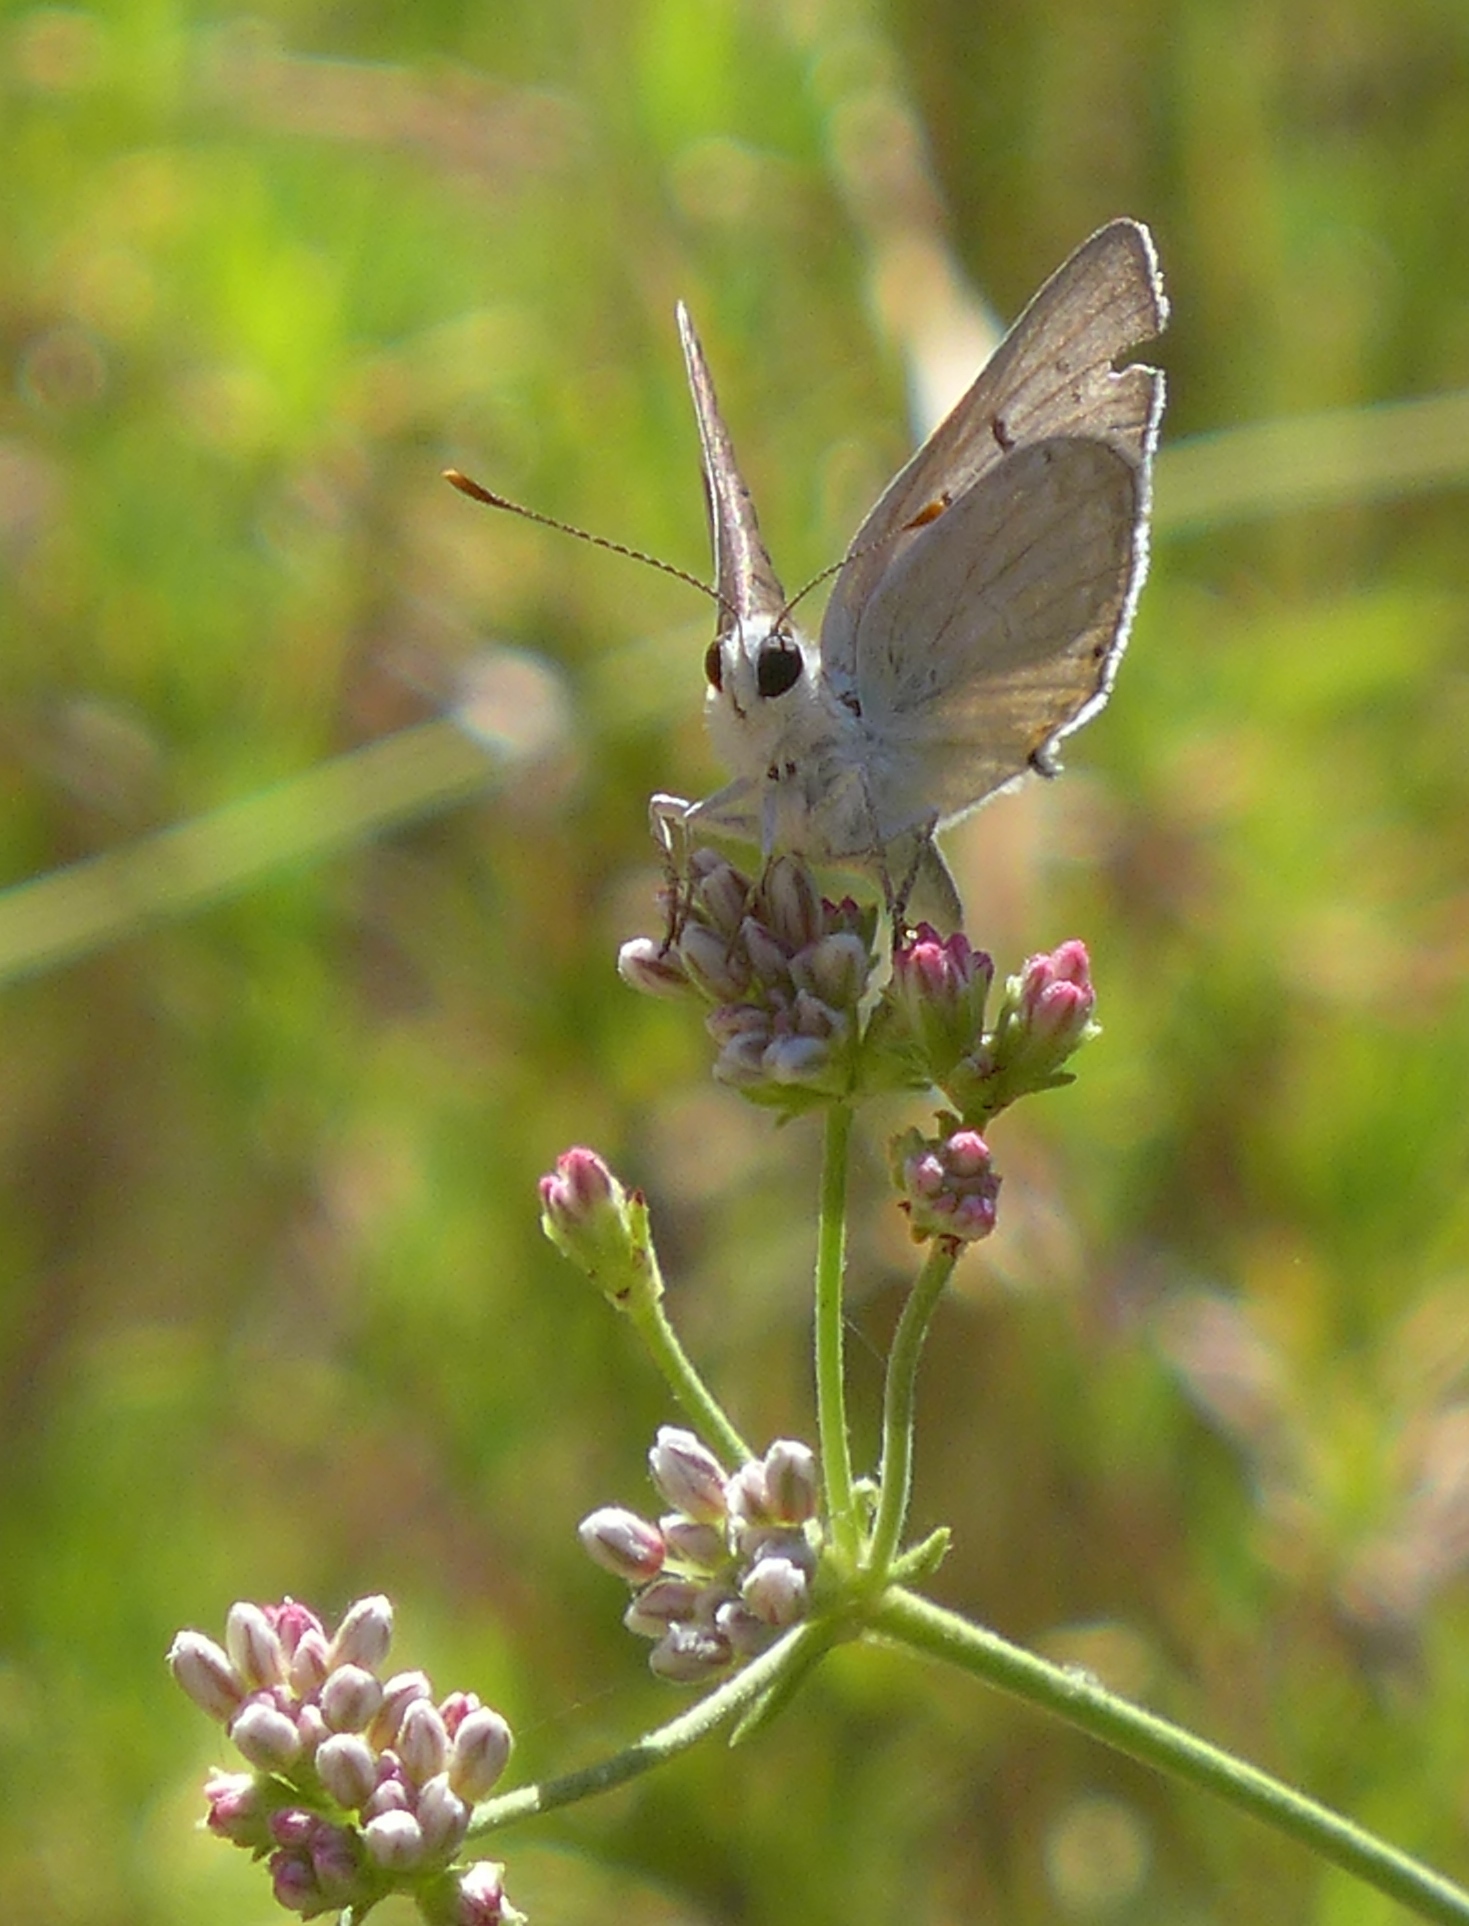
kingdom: Animalia
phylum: Arthropoda
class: Insecta
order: Lepidoptera
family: Lycaenidae
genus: Tharsalea
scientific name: Tharsalea xanthoides
